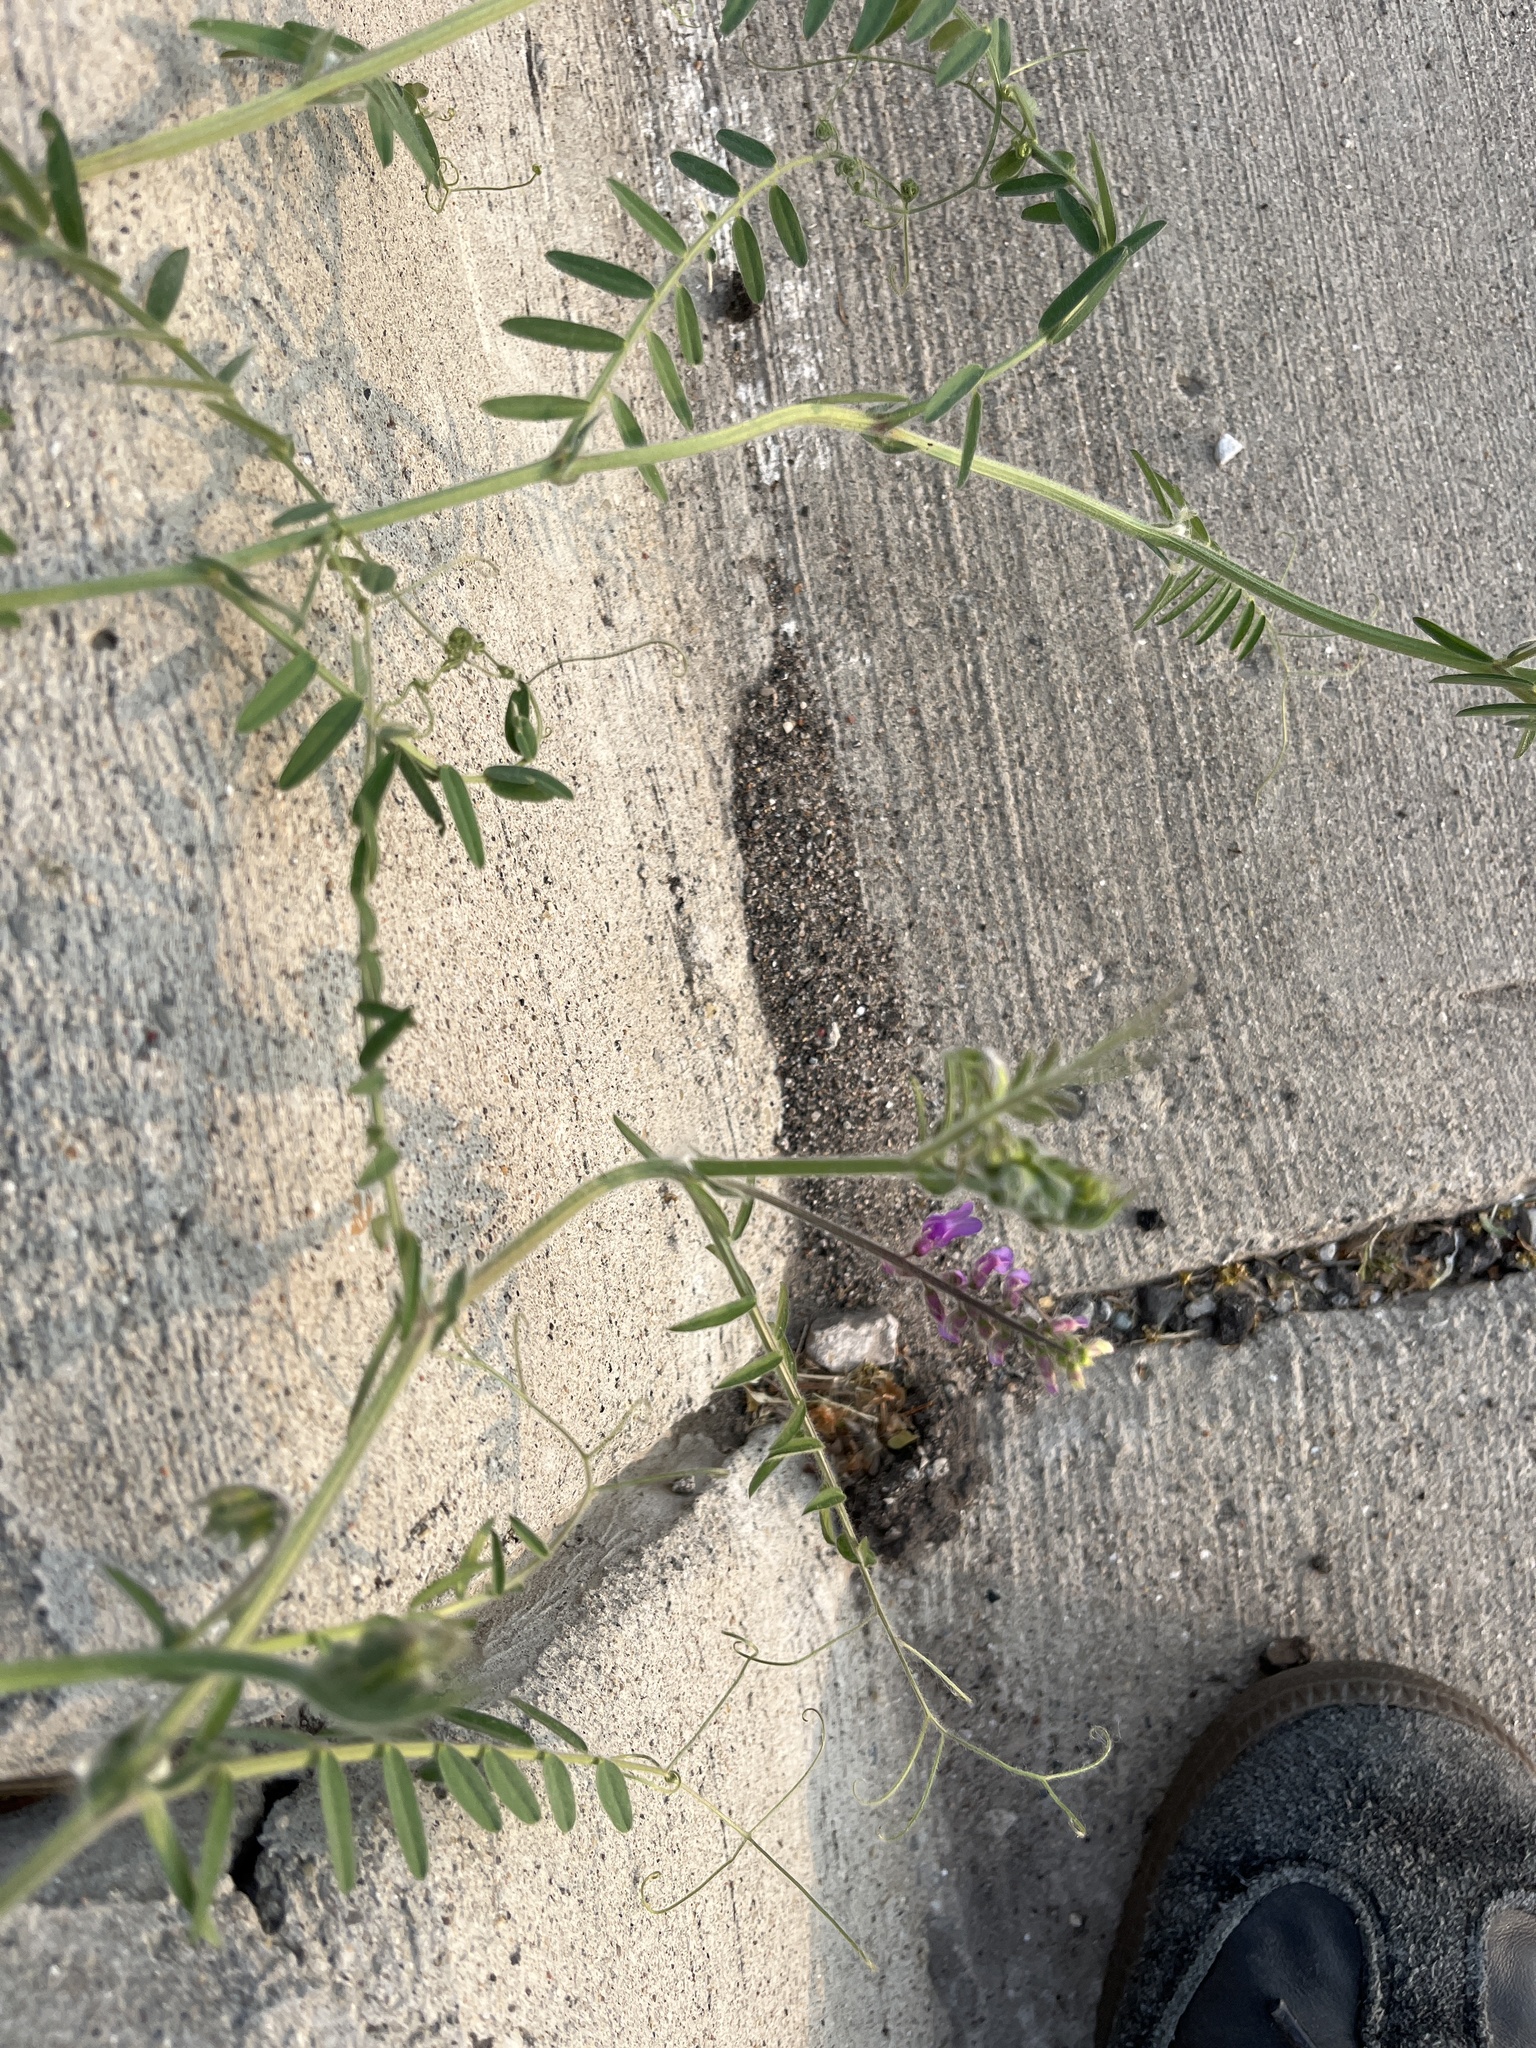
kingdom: Plantae
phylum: Tracheophyta
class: Magnoliopsida
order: Fabales
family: Fabaceae
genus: Vicia
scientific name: Vicia villosa
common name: Fodder vetch
